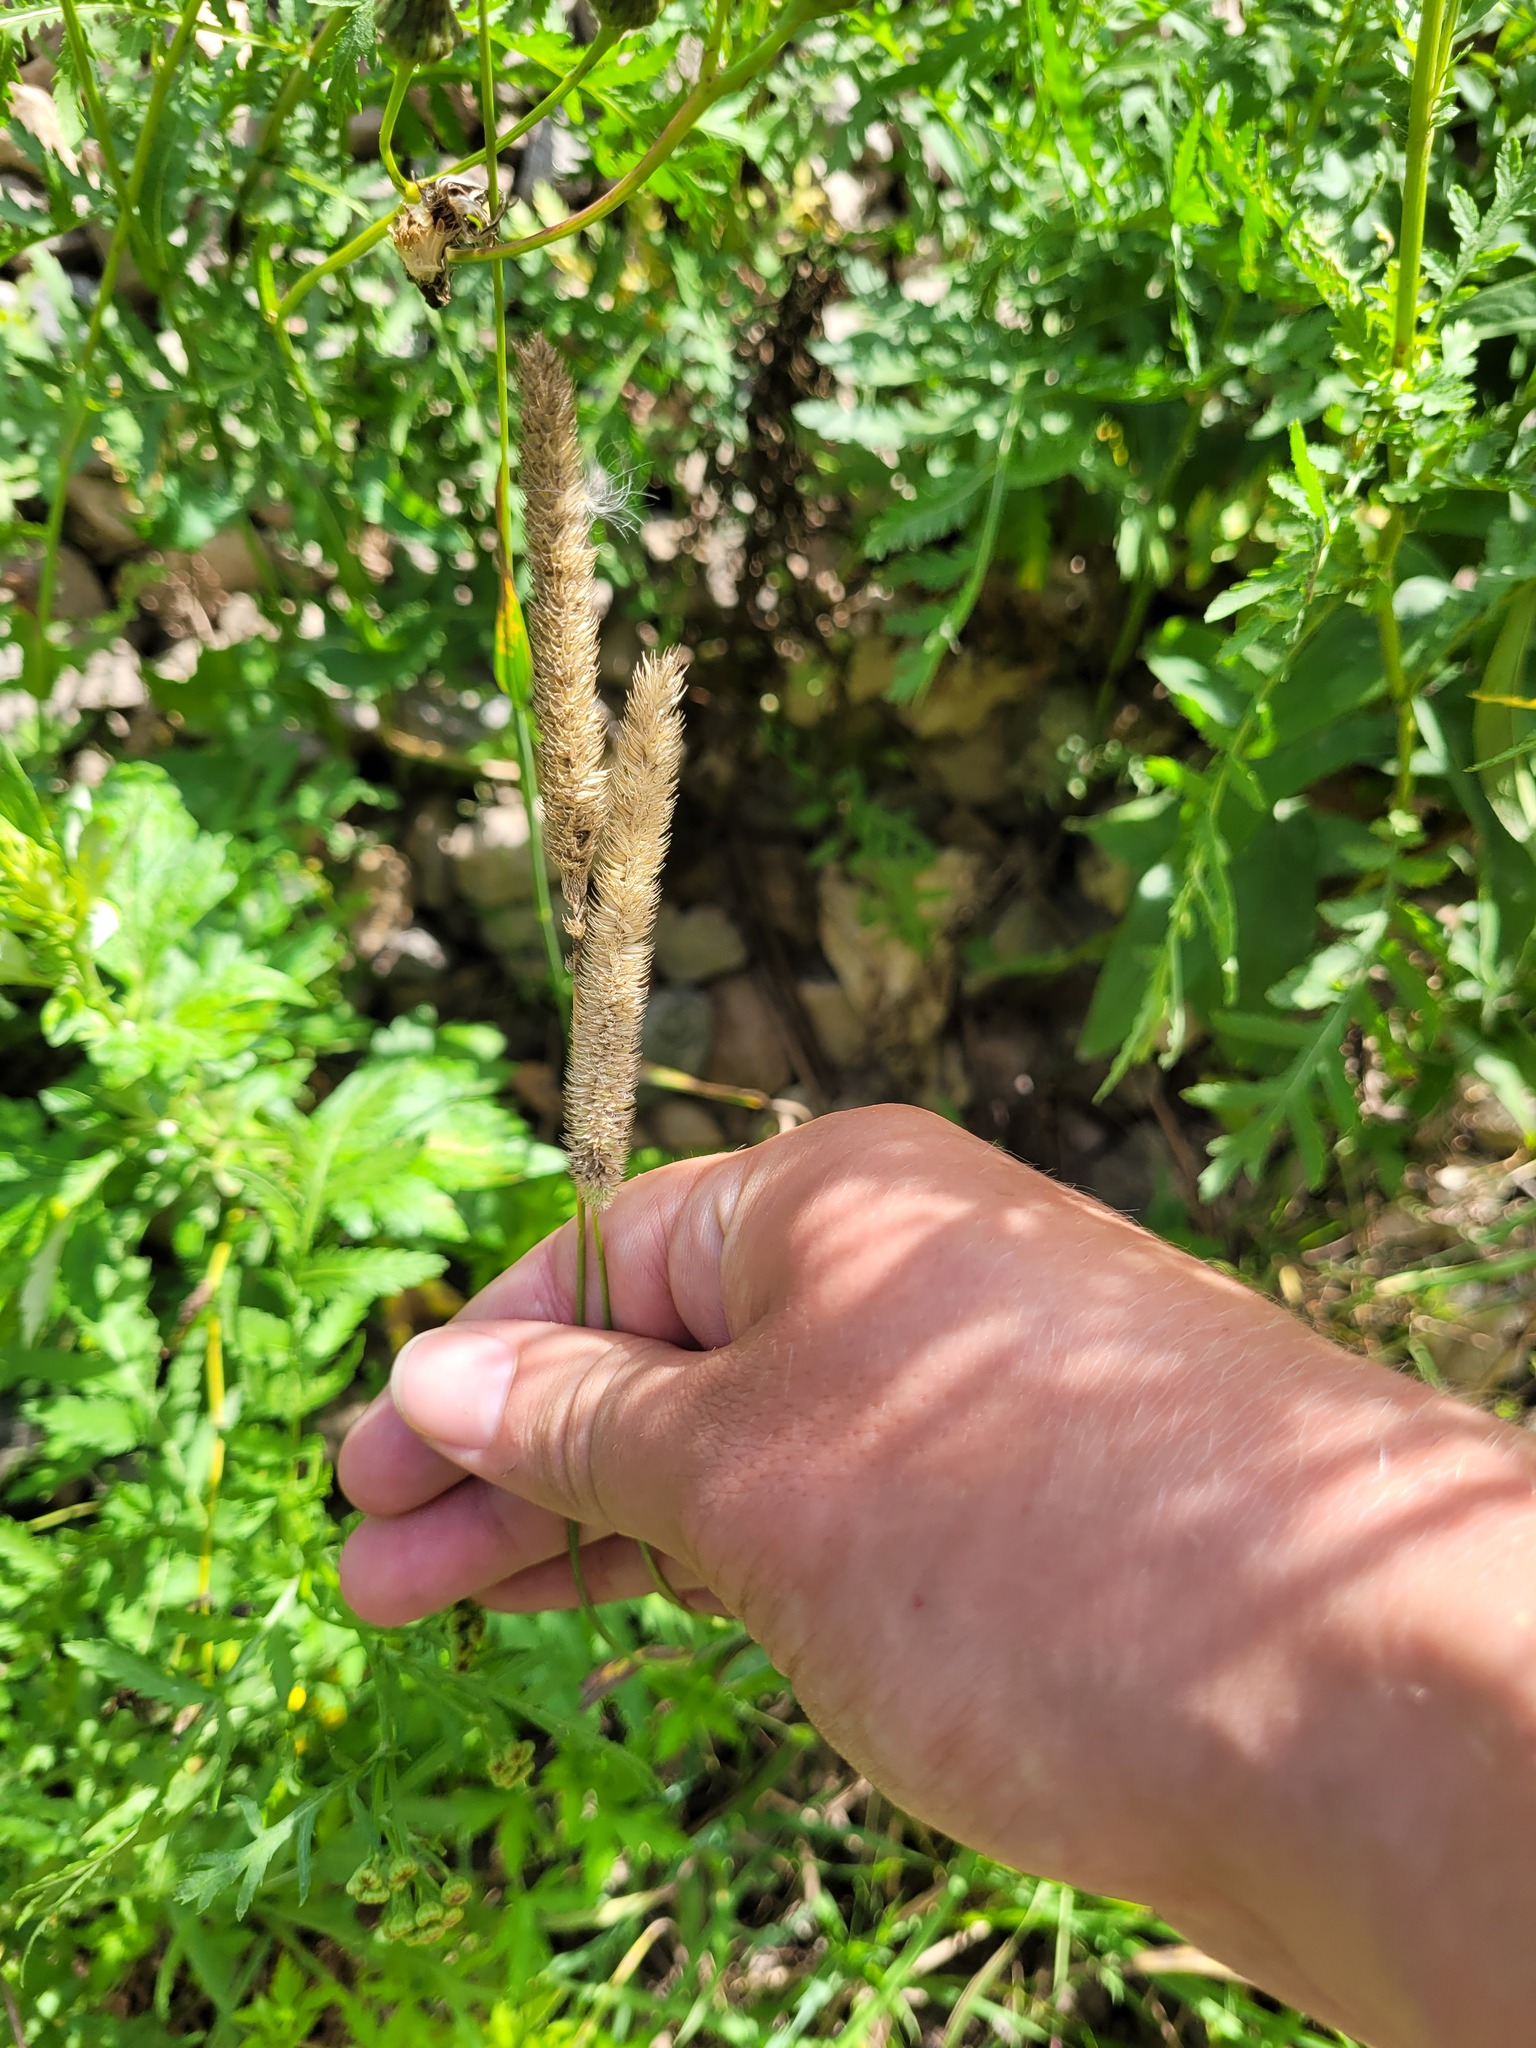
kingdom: Plantae
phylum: Tracheophyta
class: Liliopsida
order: Poales
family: Poaceae
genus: Phleum
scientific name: Phleum pratense
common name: Timothy grass
